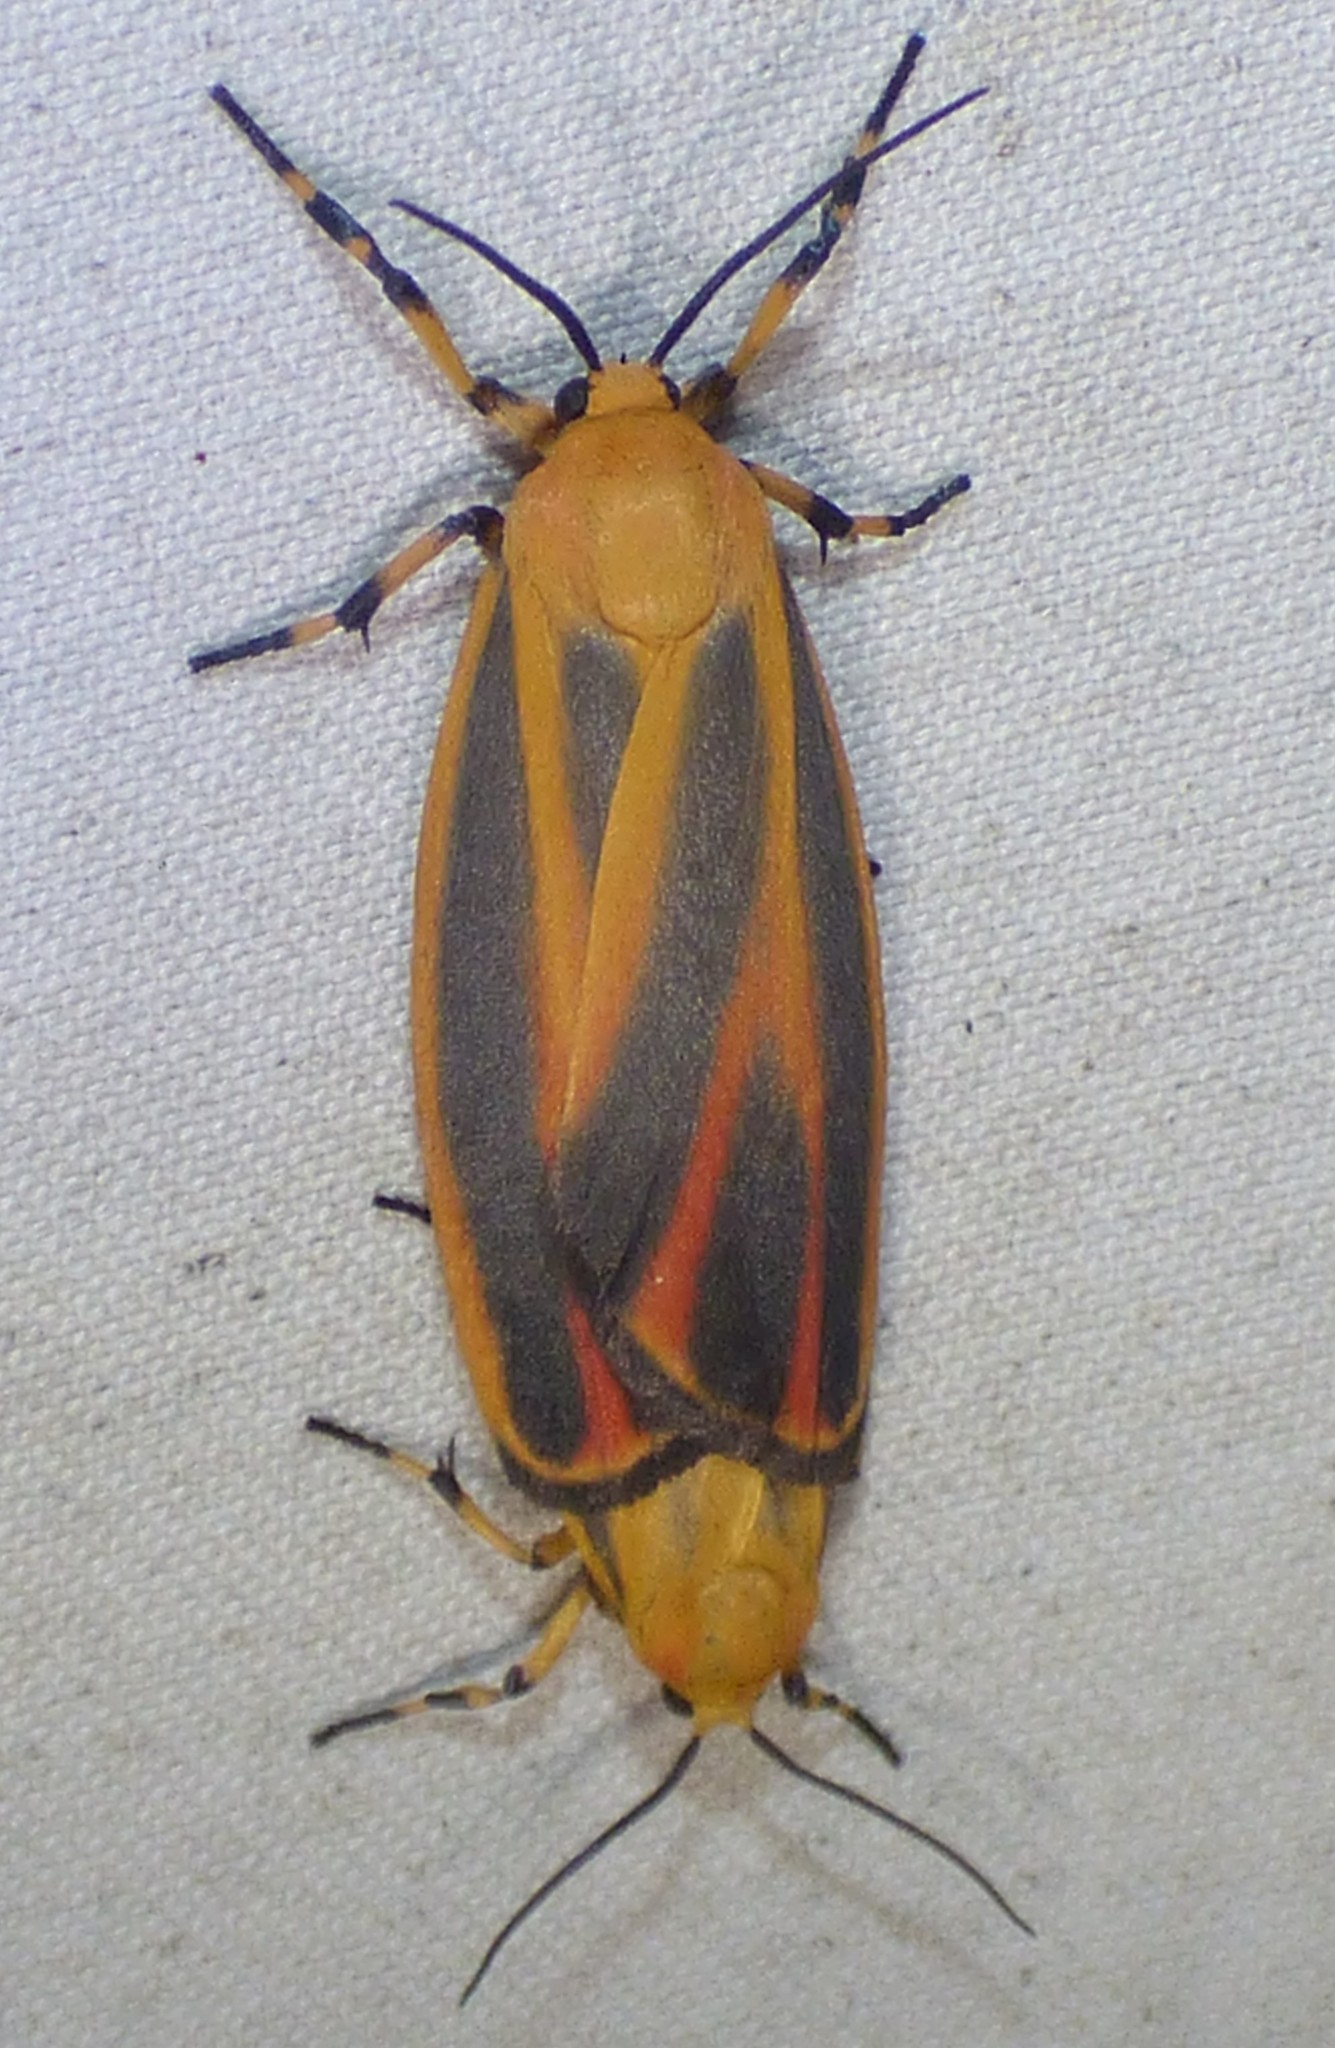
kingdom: Animalia
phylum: Arthropoda
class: Insecta
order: Lepidoptera
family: Erebidae
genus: Hypoprepia
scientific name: Hypoprepia fucosa
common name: Painted lichen moth
